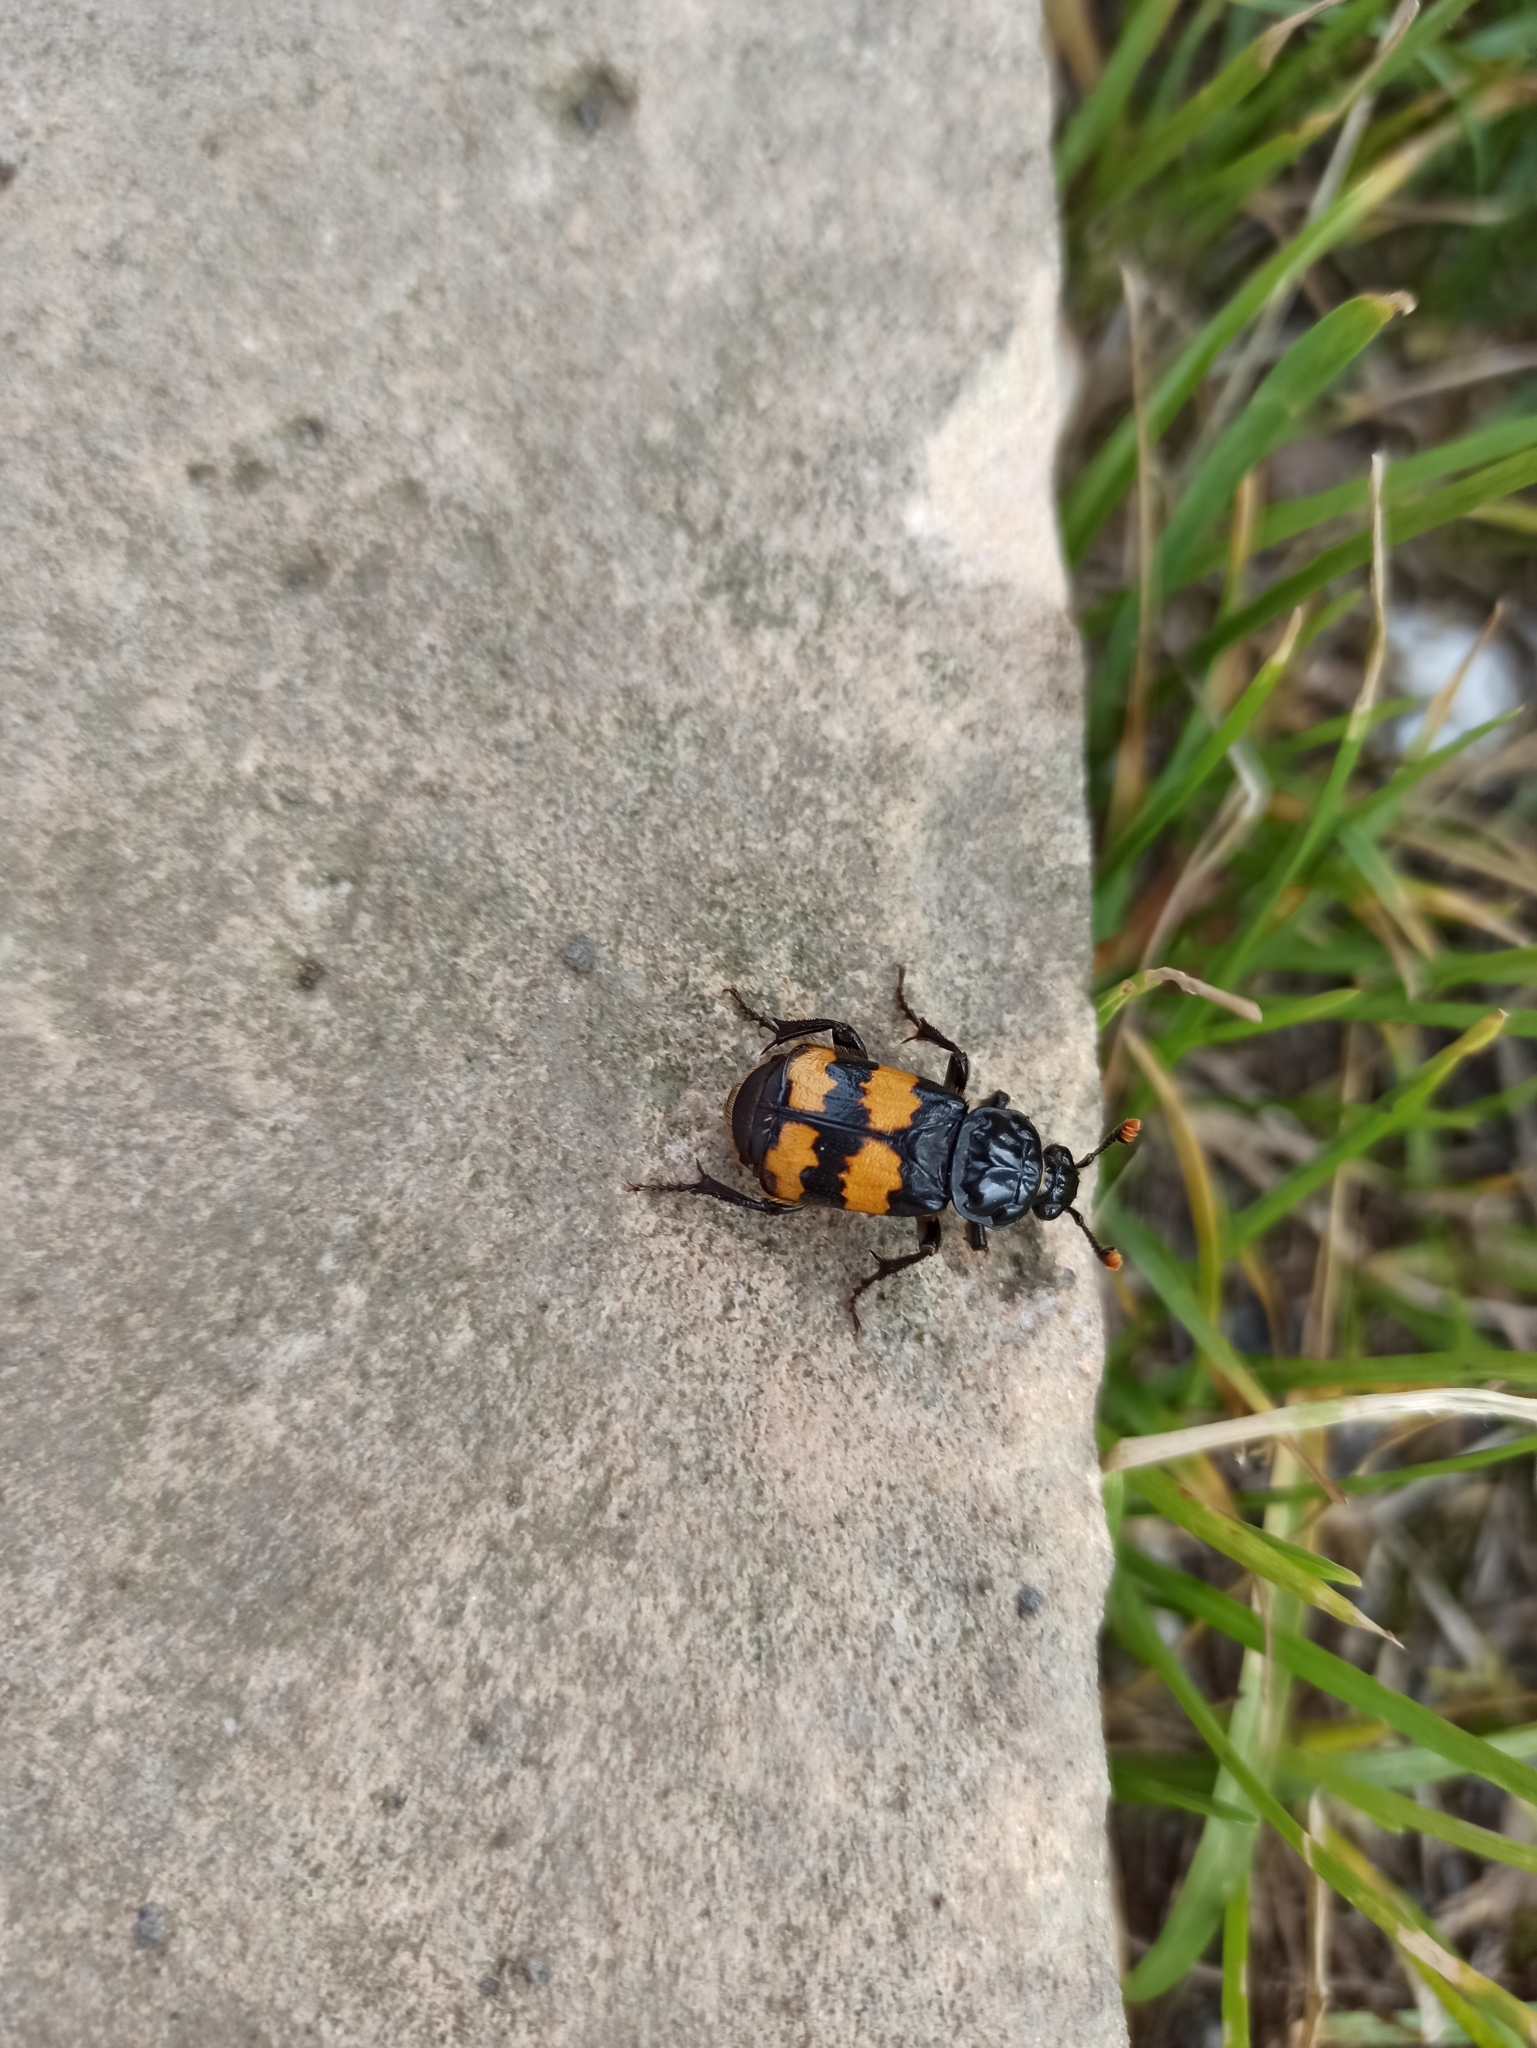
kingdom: Animalia
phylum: Arthropoda
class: Insecta
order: Coleoptera
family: Staphylinidae
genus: Nicrophorus
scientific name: Nicrophorus investigator
